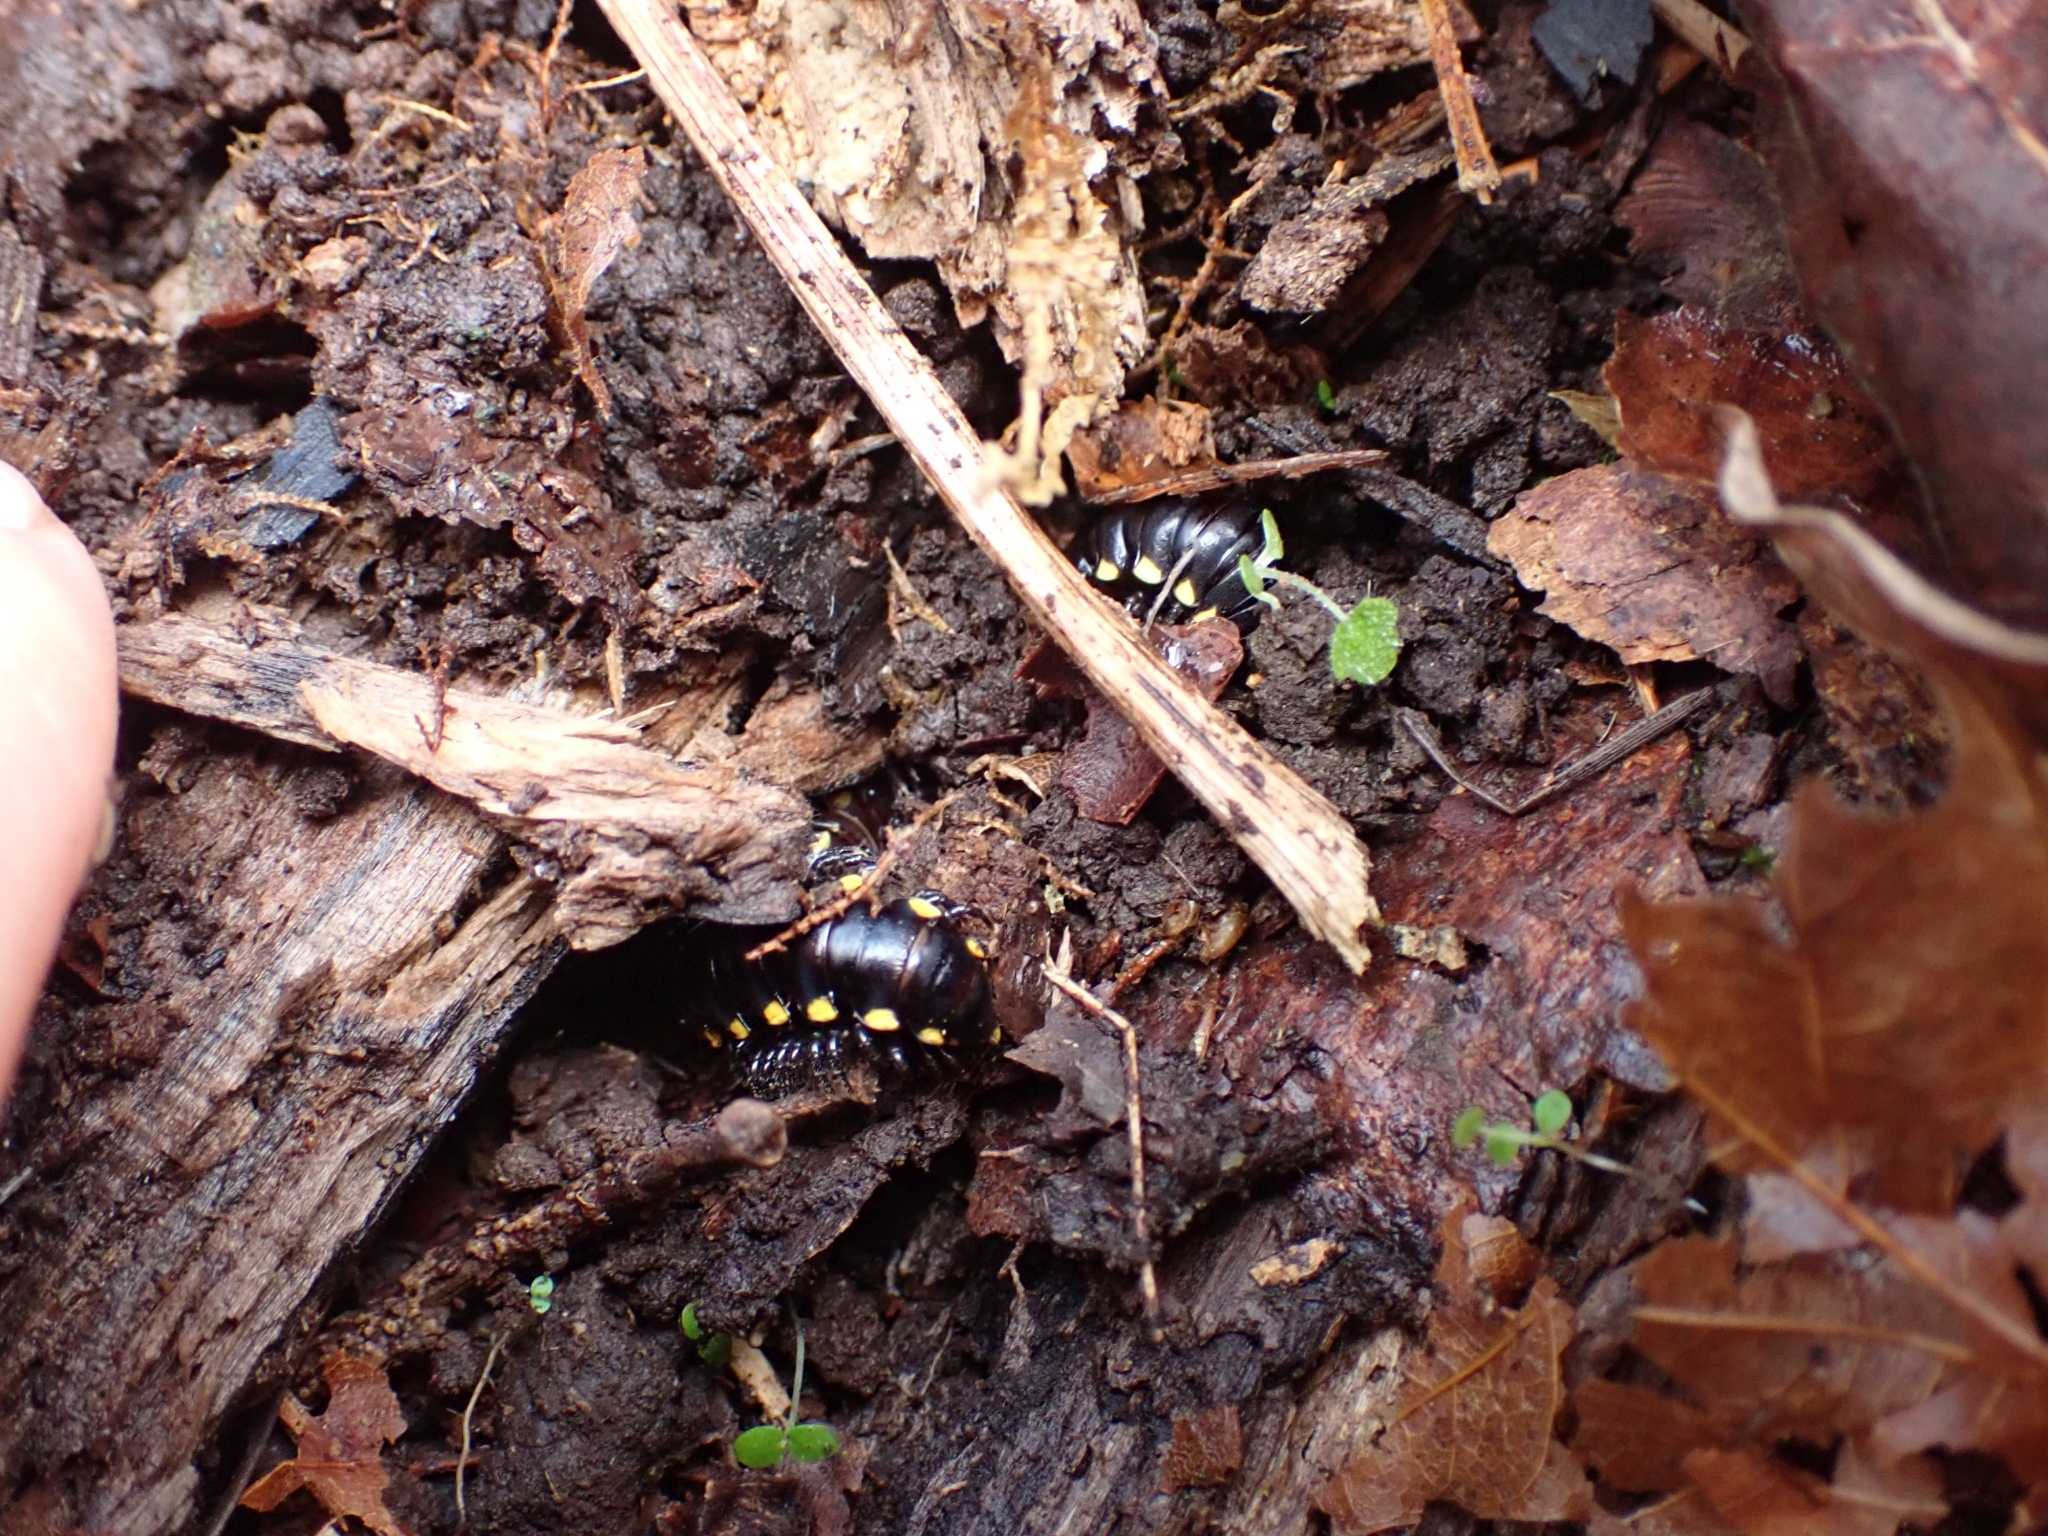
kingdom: Animalia
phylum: Arthropoda
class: Diplopoda
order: Polydesmida
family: Xystodesmidae
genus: Harpaphe
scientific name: Harpaphe haydeniana
